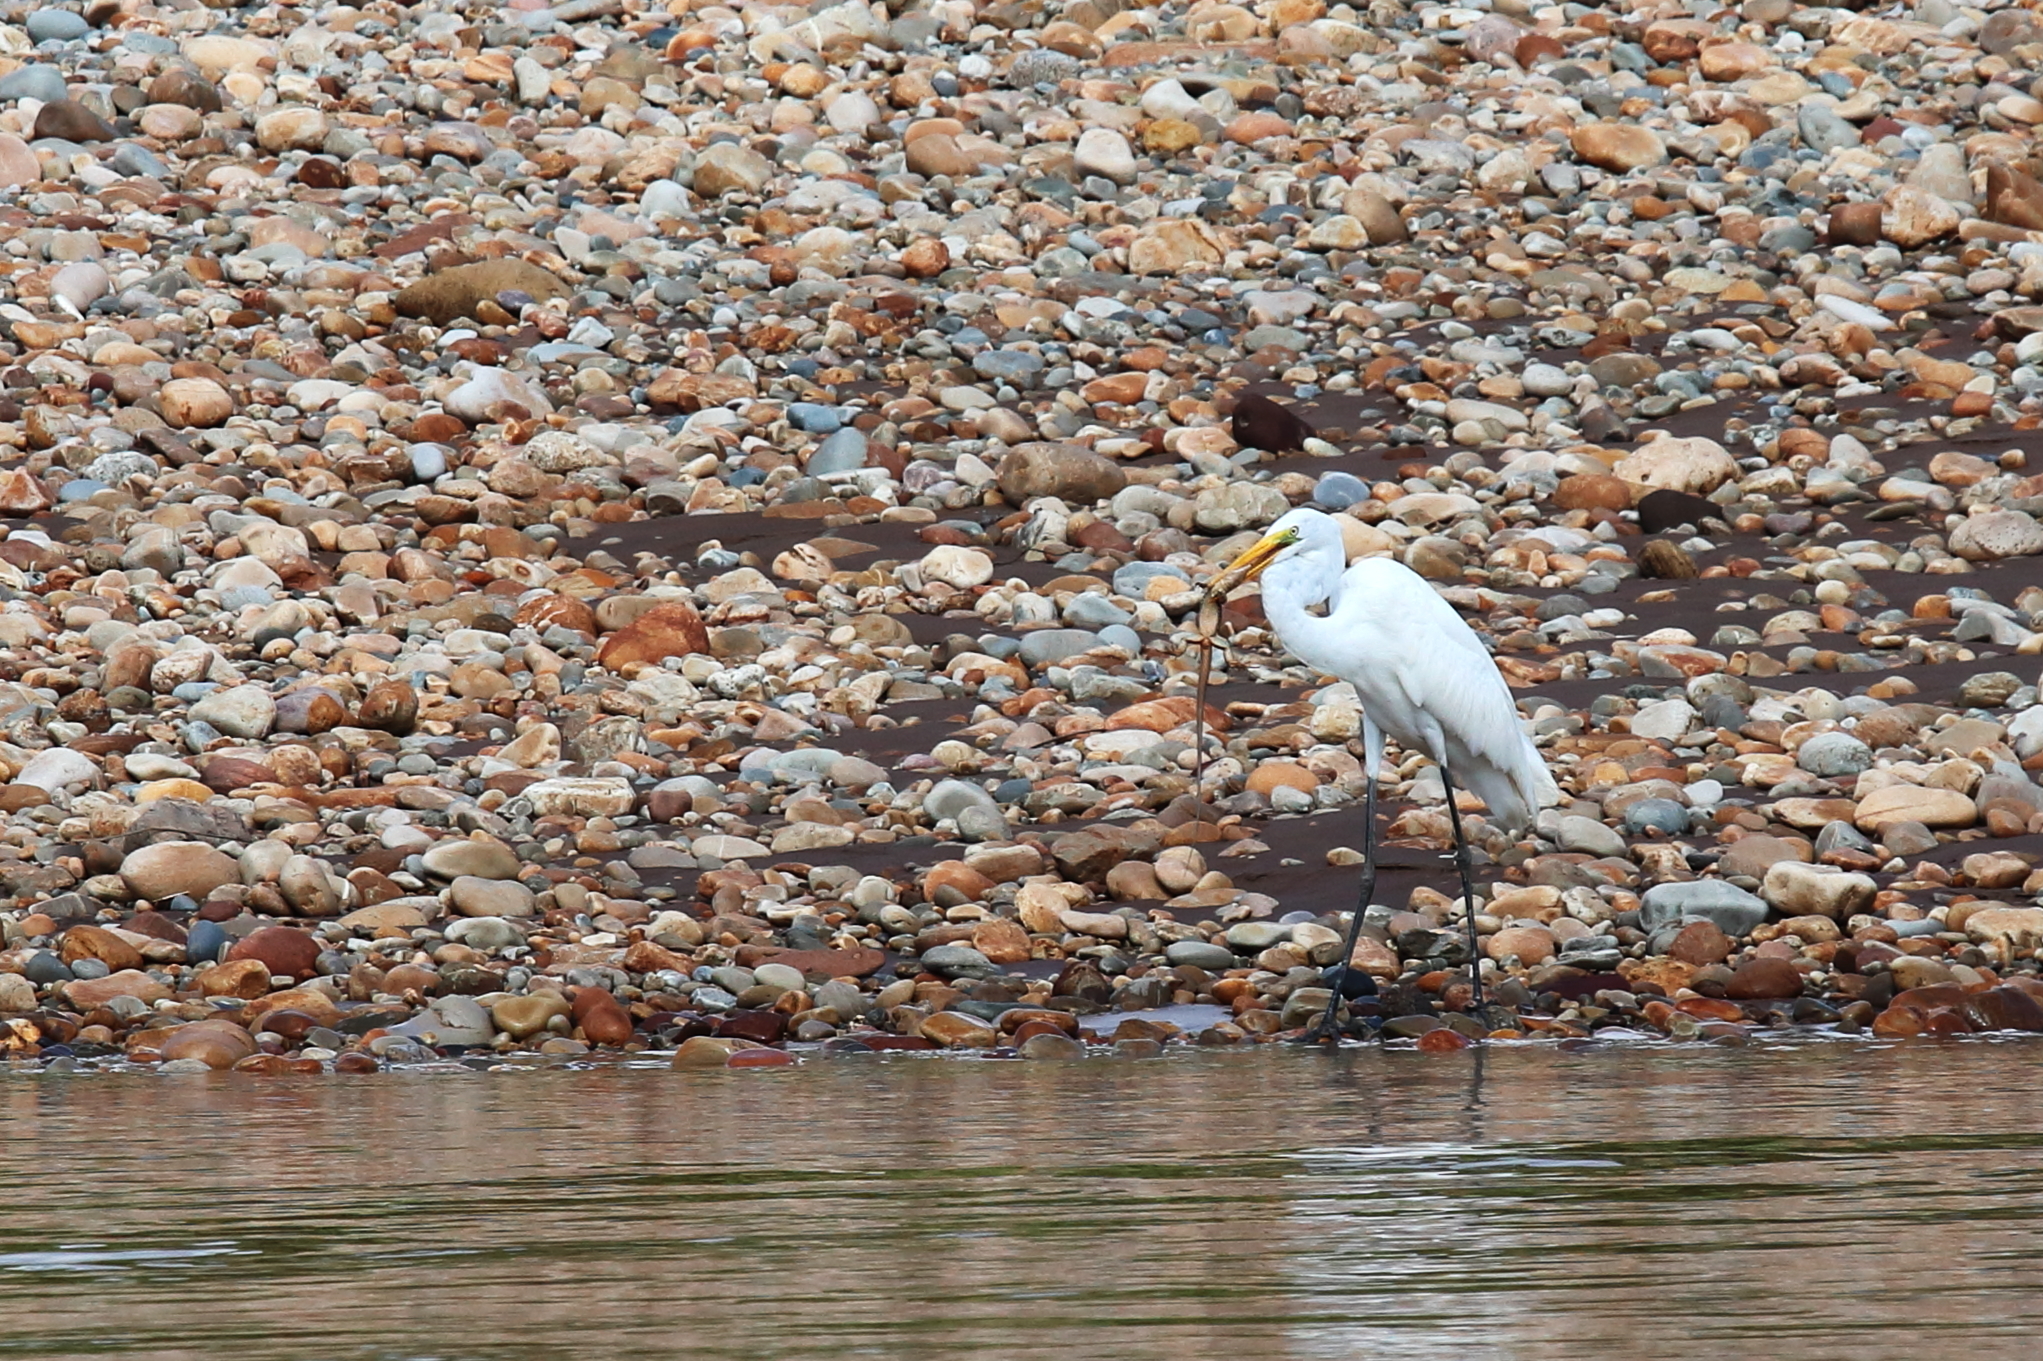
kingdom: Animalia
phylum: Chordata
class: Aves
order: Pelecaniformes
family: Ardeidae
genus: Ardea
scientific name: Ardea alba
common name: Great egret
